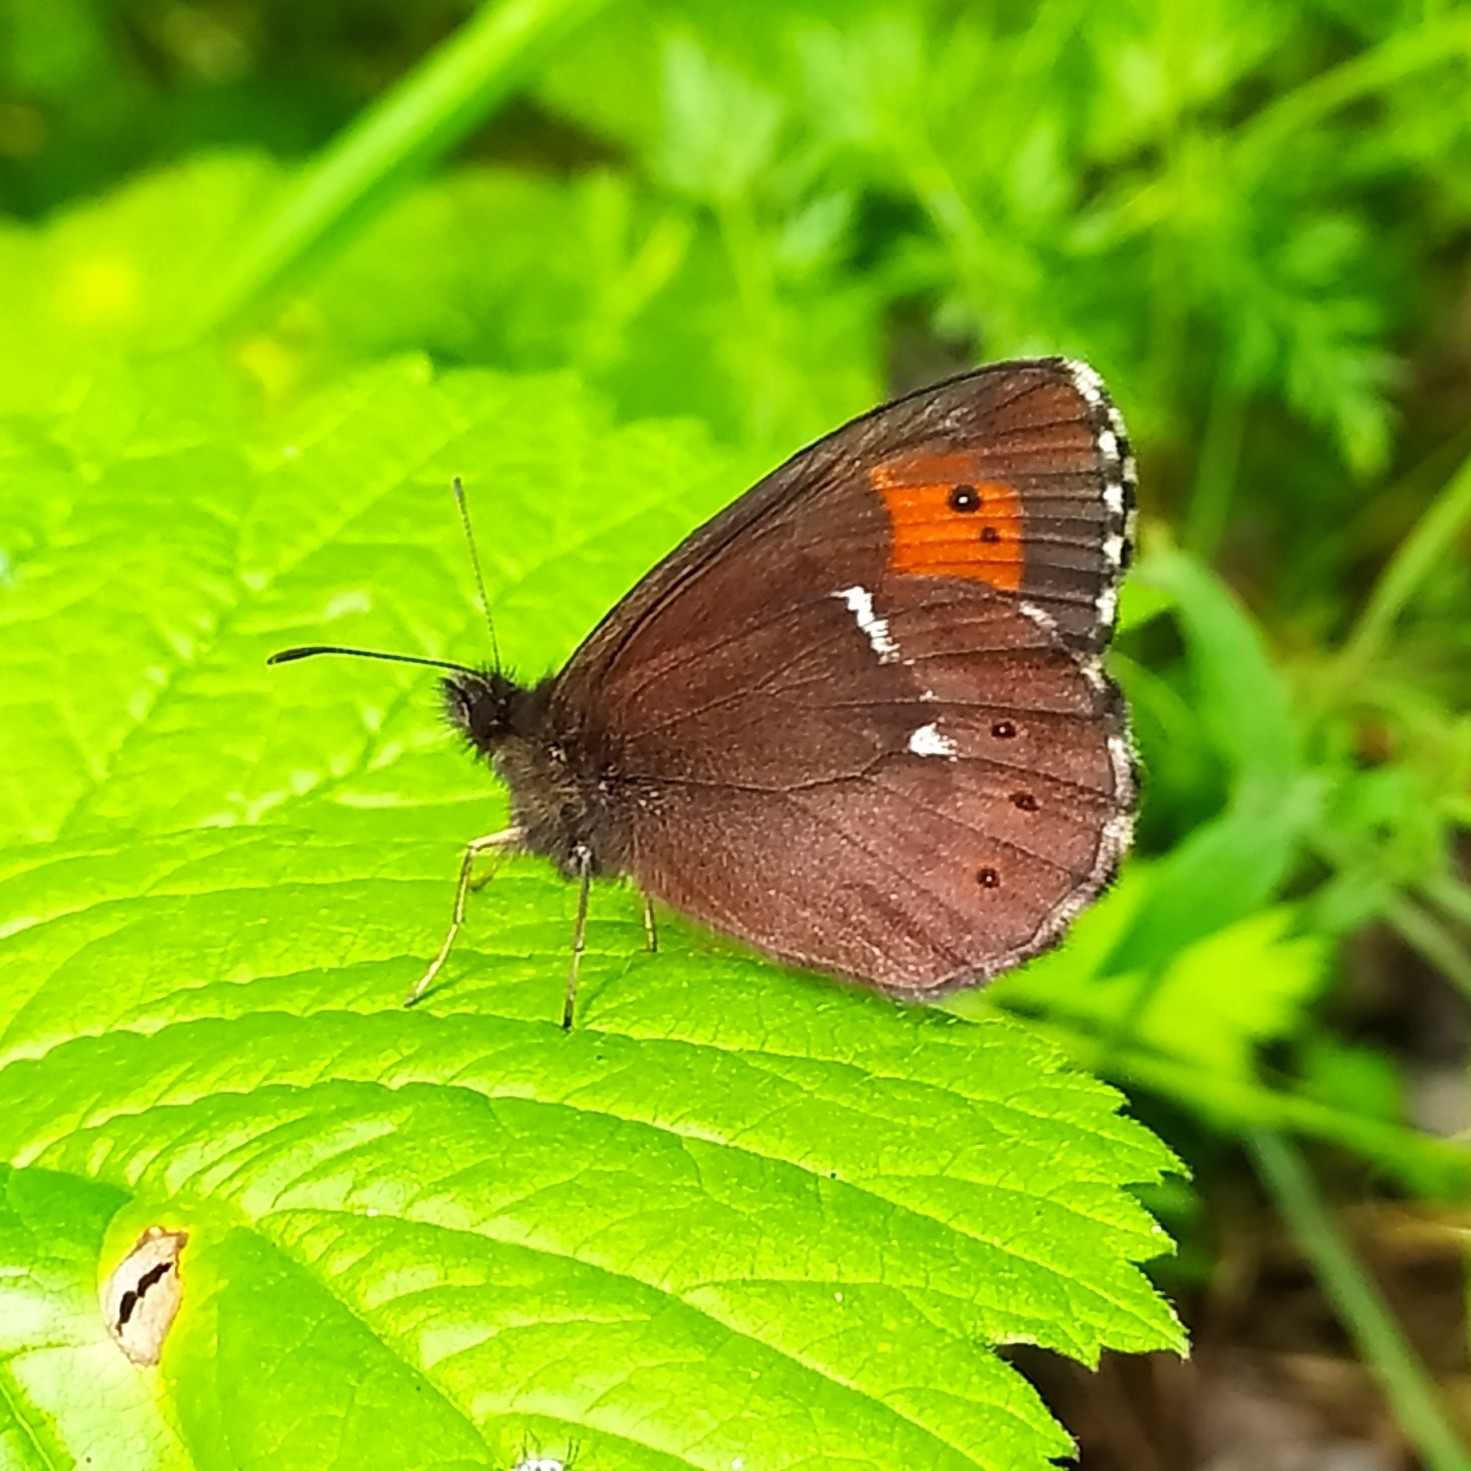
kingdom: Animalia
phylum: Arthropoda
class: Insecta
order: Lepidoptera
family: Nymphalidae
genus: Erebia
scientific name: Erebia ligea
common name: Arran brown
